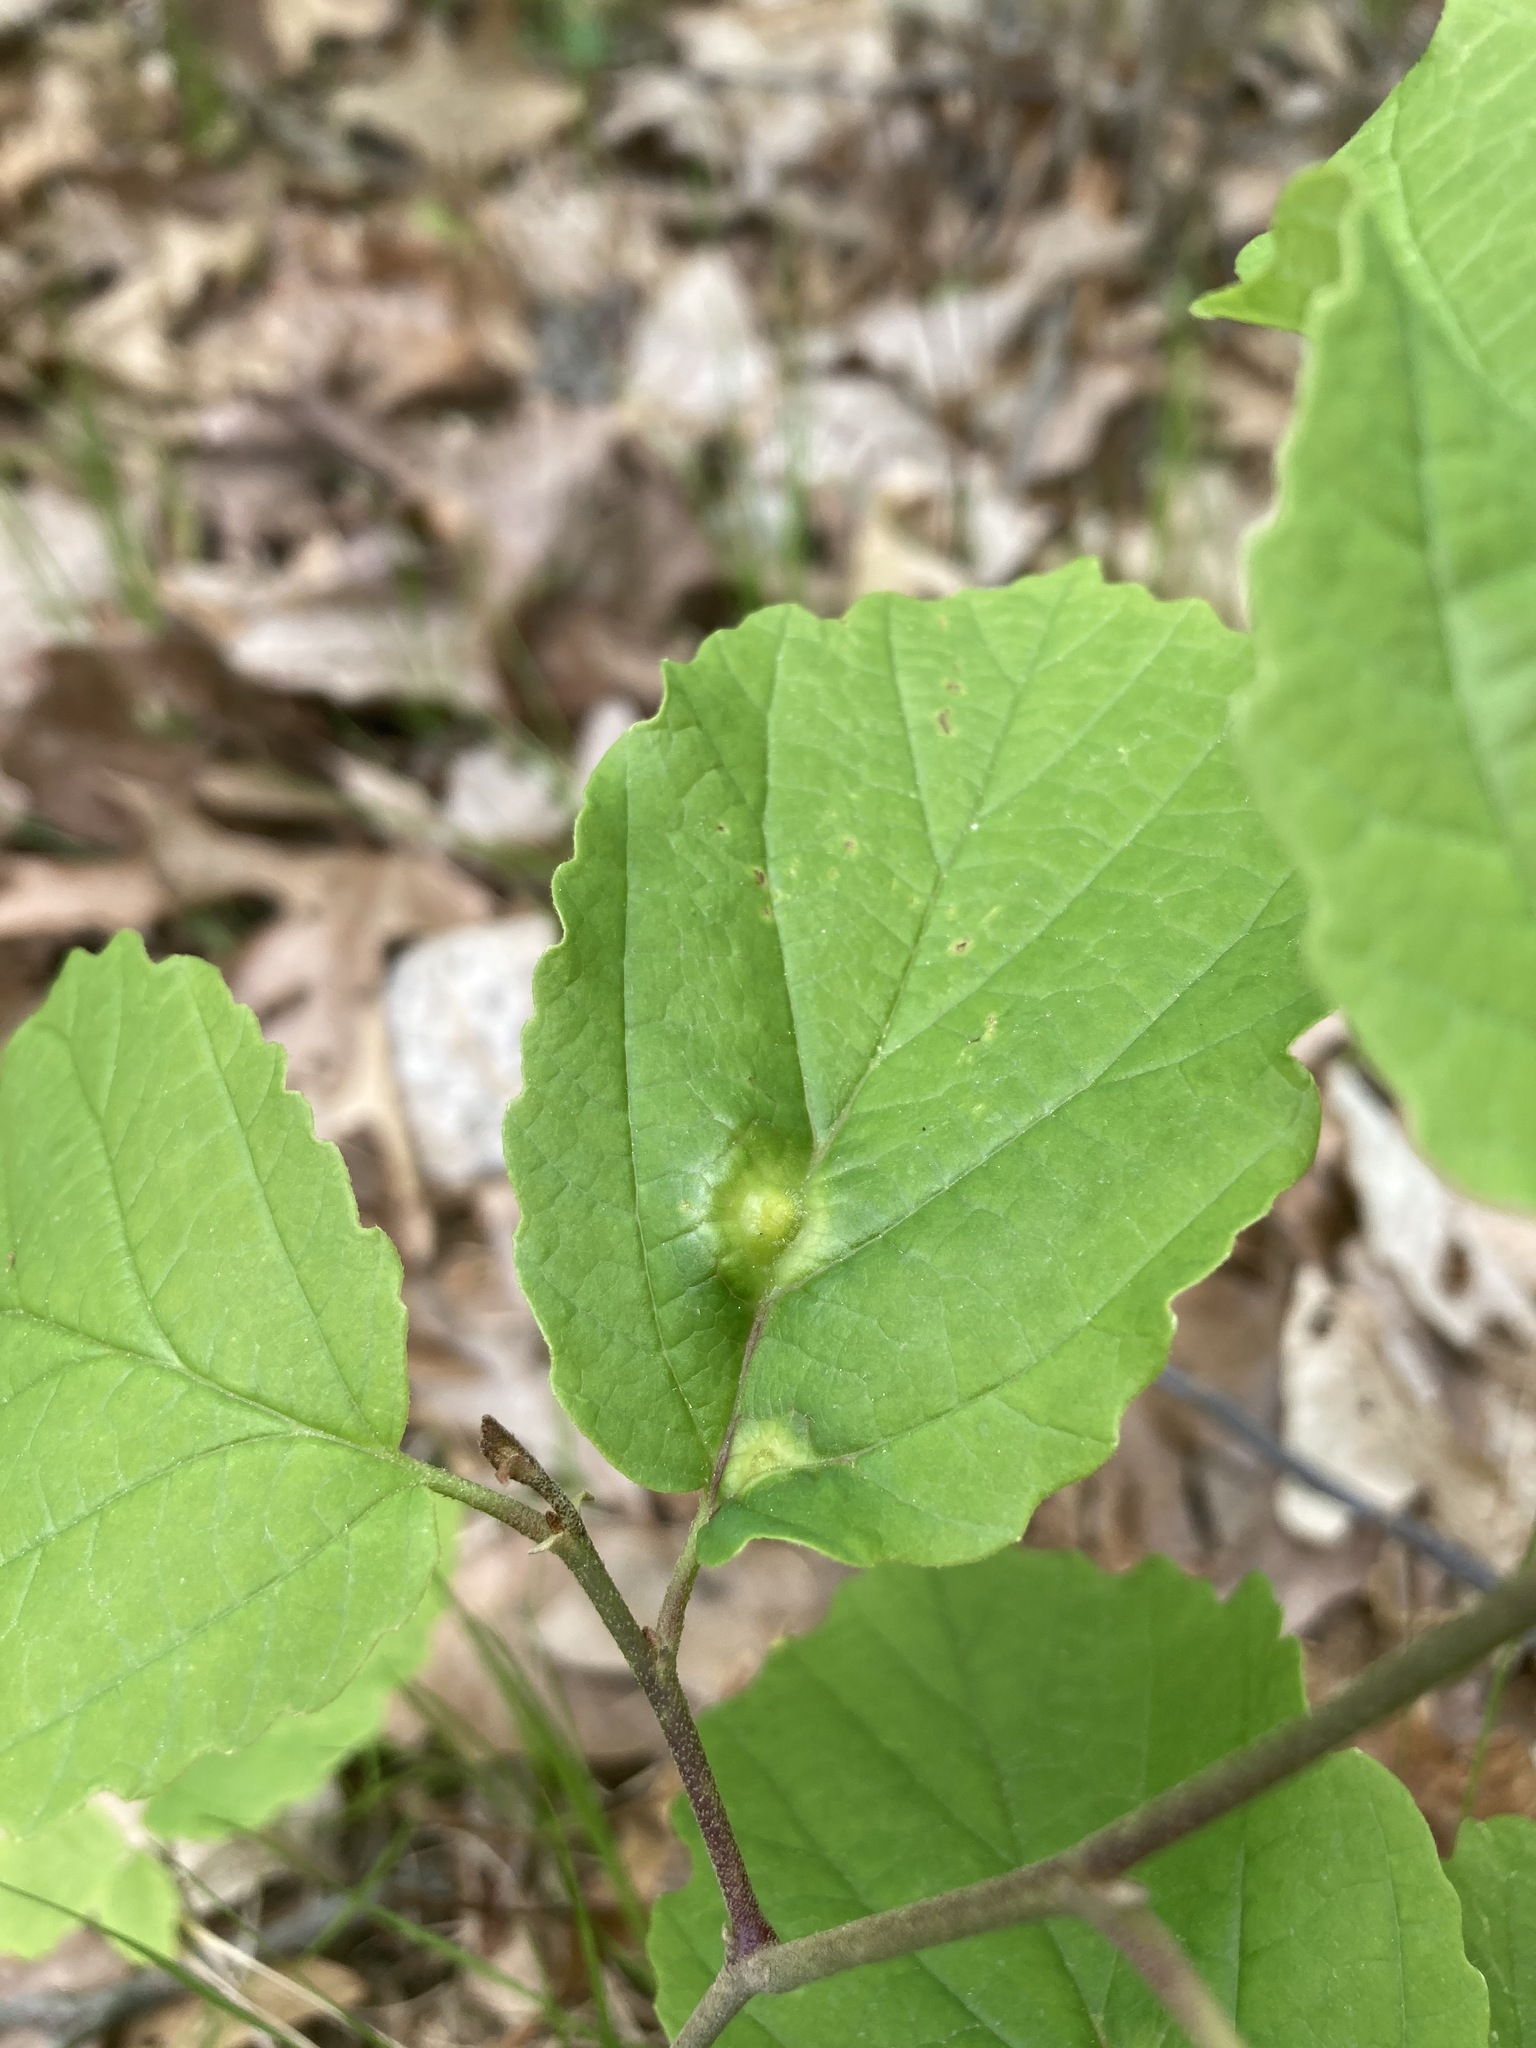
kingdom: Plantae
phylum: Tracheophyta
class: Magnoliopsida
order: Saxifragales
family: Hamamelidaceae
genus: Hamamelis
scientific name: Hamamelis virginiana
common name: Witch-hazel
